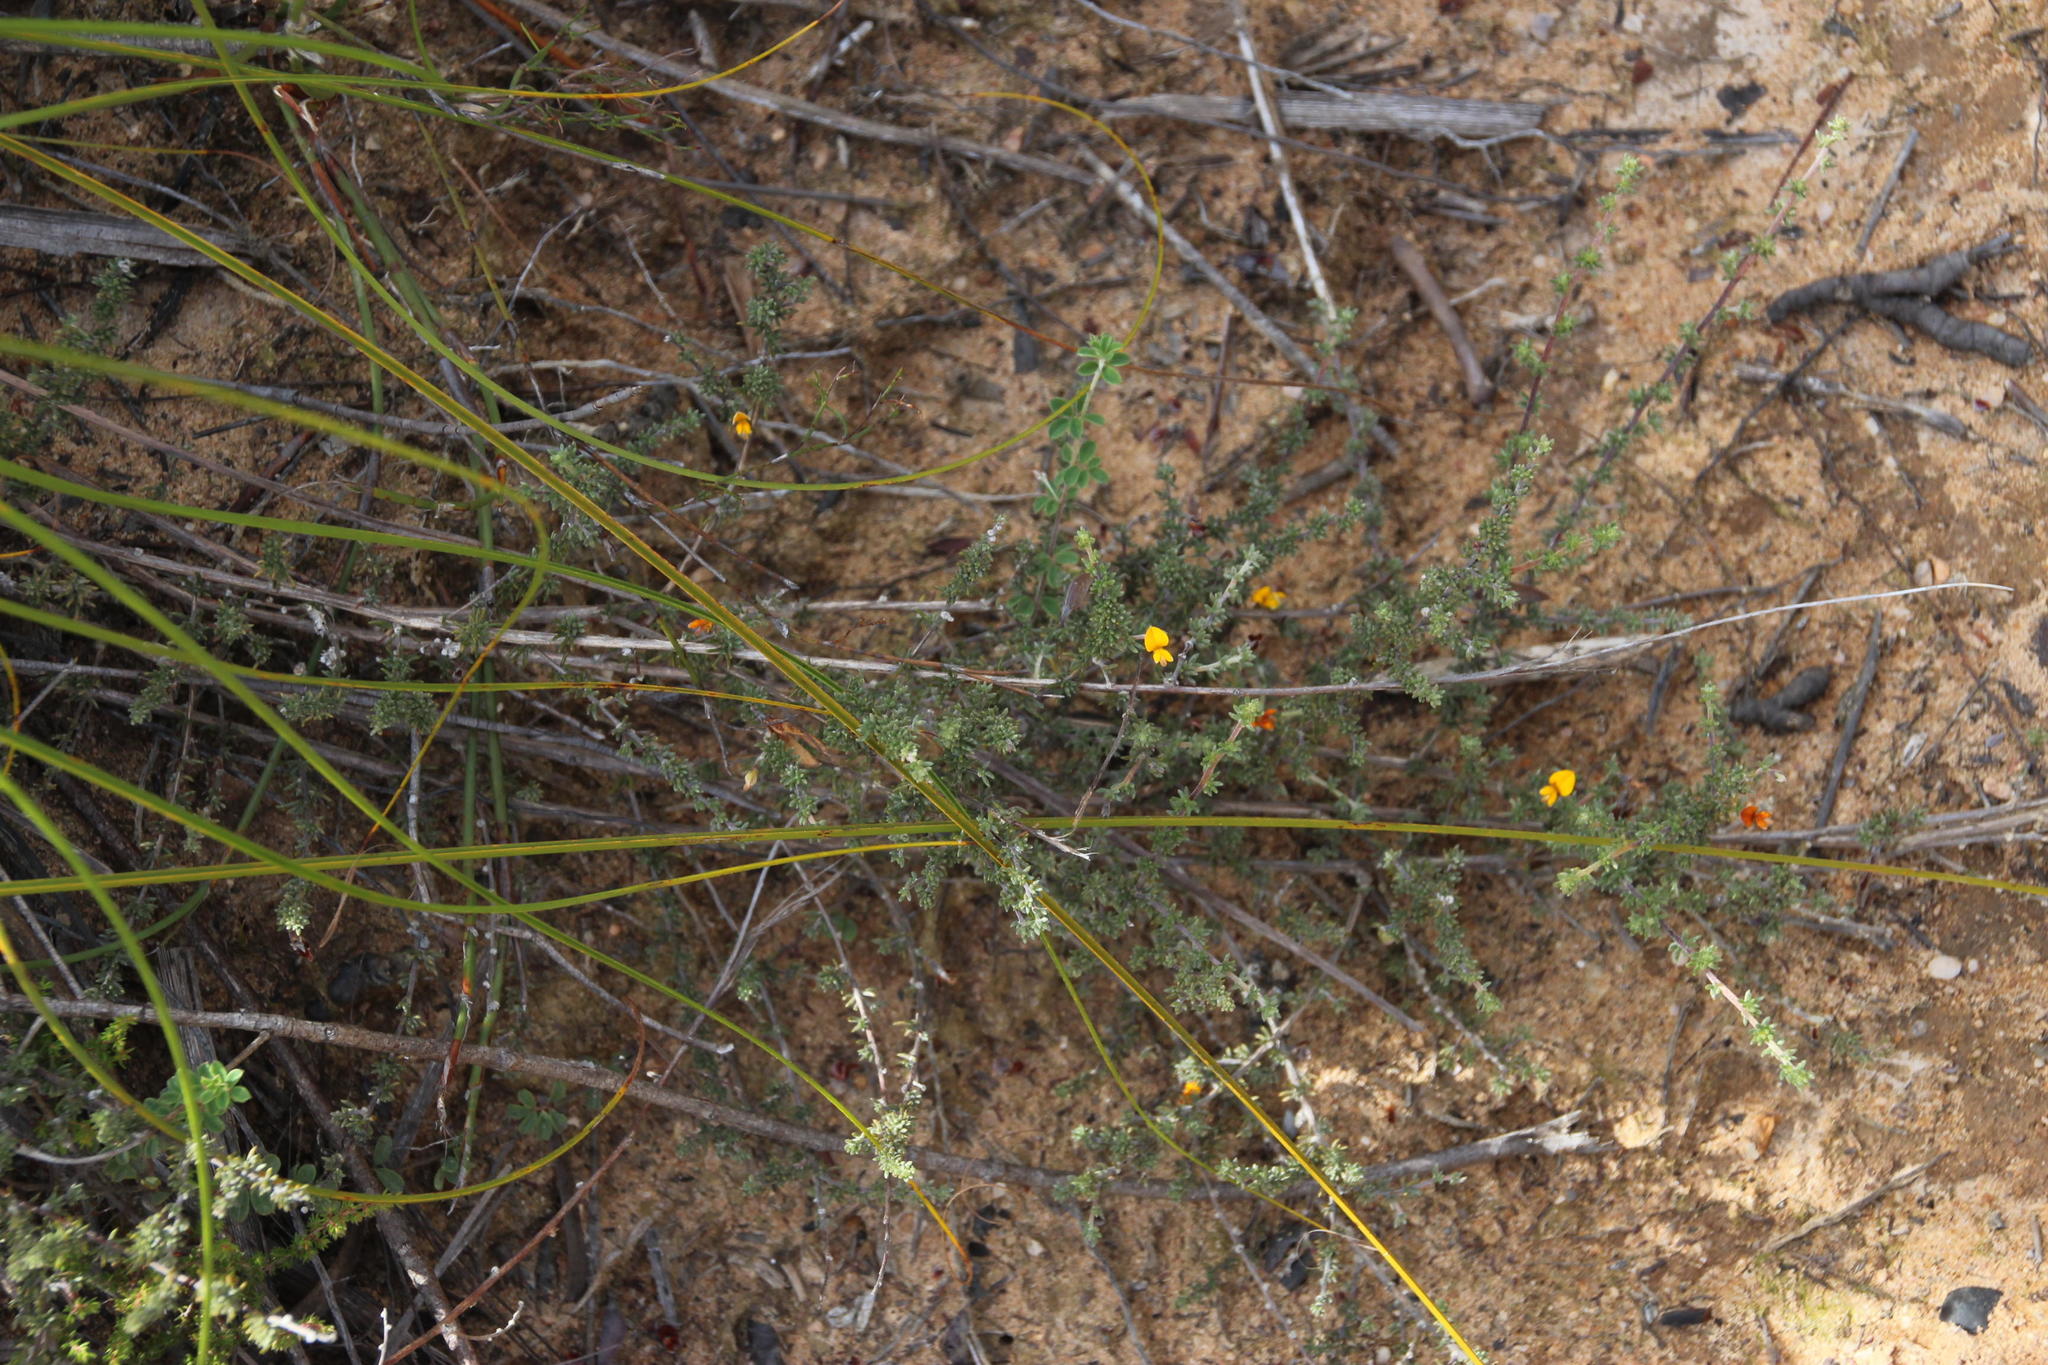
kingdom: Plantae
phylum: Tracheophyta
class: Magnoliopsida
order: Fabales
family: Fabaceae
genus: Aspalathus
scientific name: Aspalathus rubens
